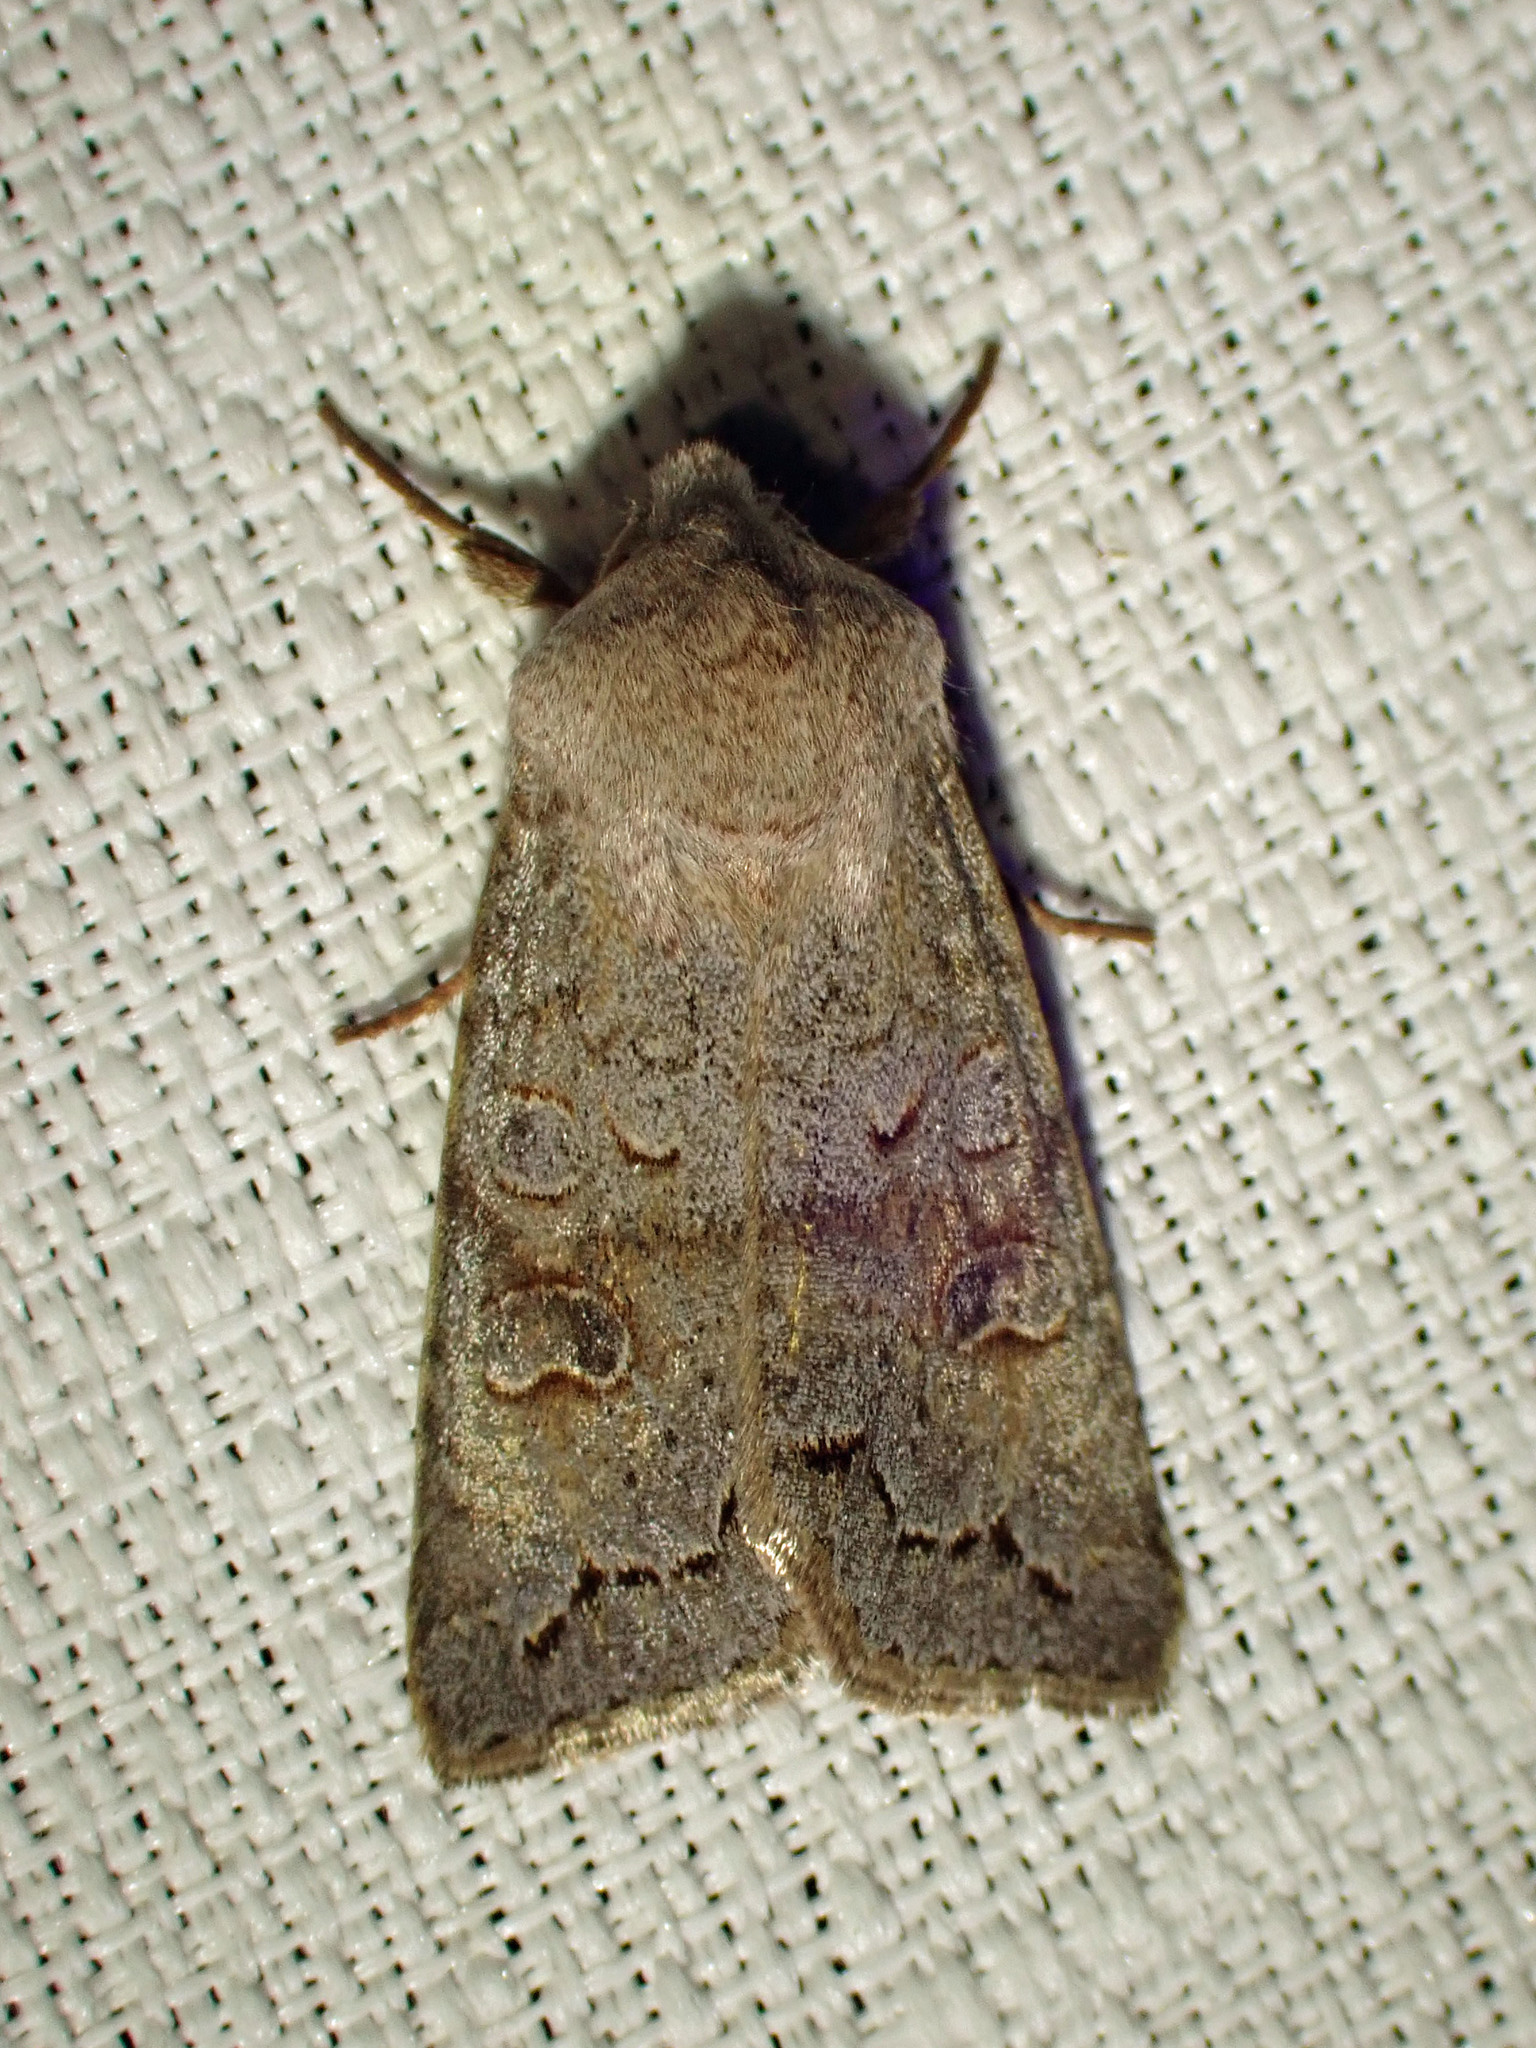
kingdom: Animalia
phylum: Arthropoda
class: Insecta
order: Lepidoptera
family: Noctuidae
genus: Orthosia
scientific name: Orthosia revicta
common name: Rusty whitesided caterpillar
